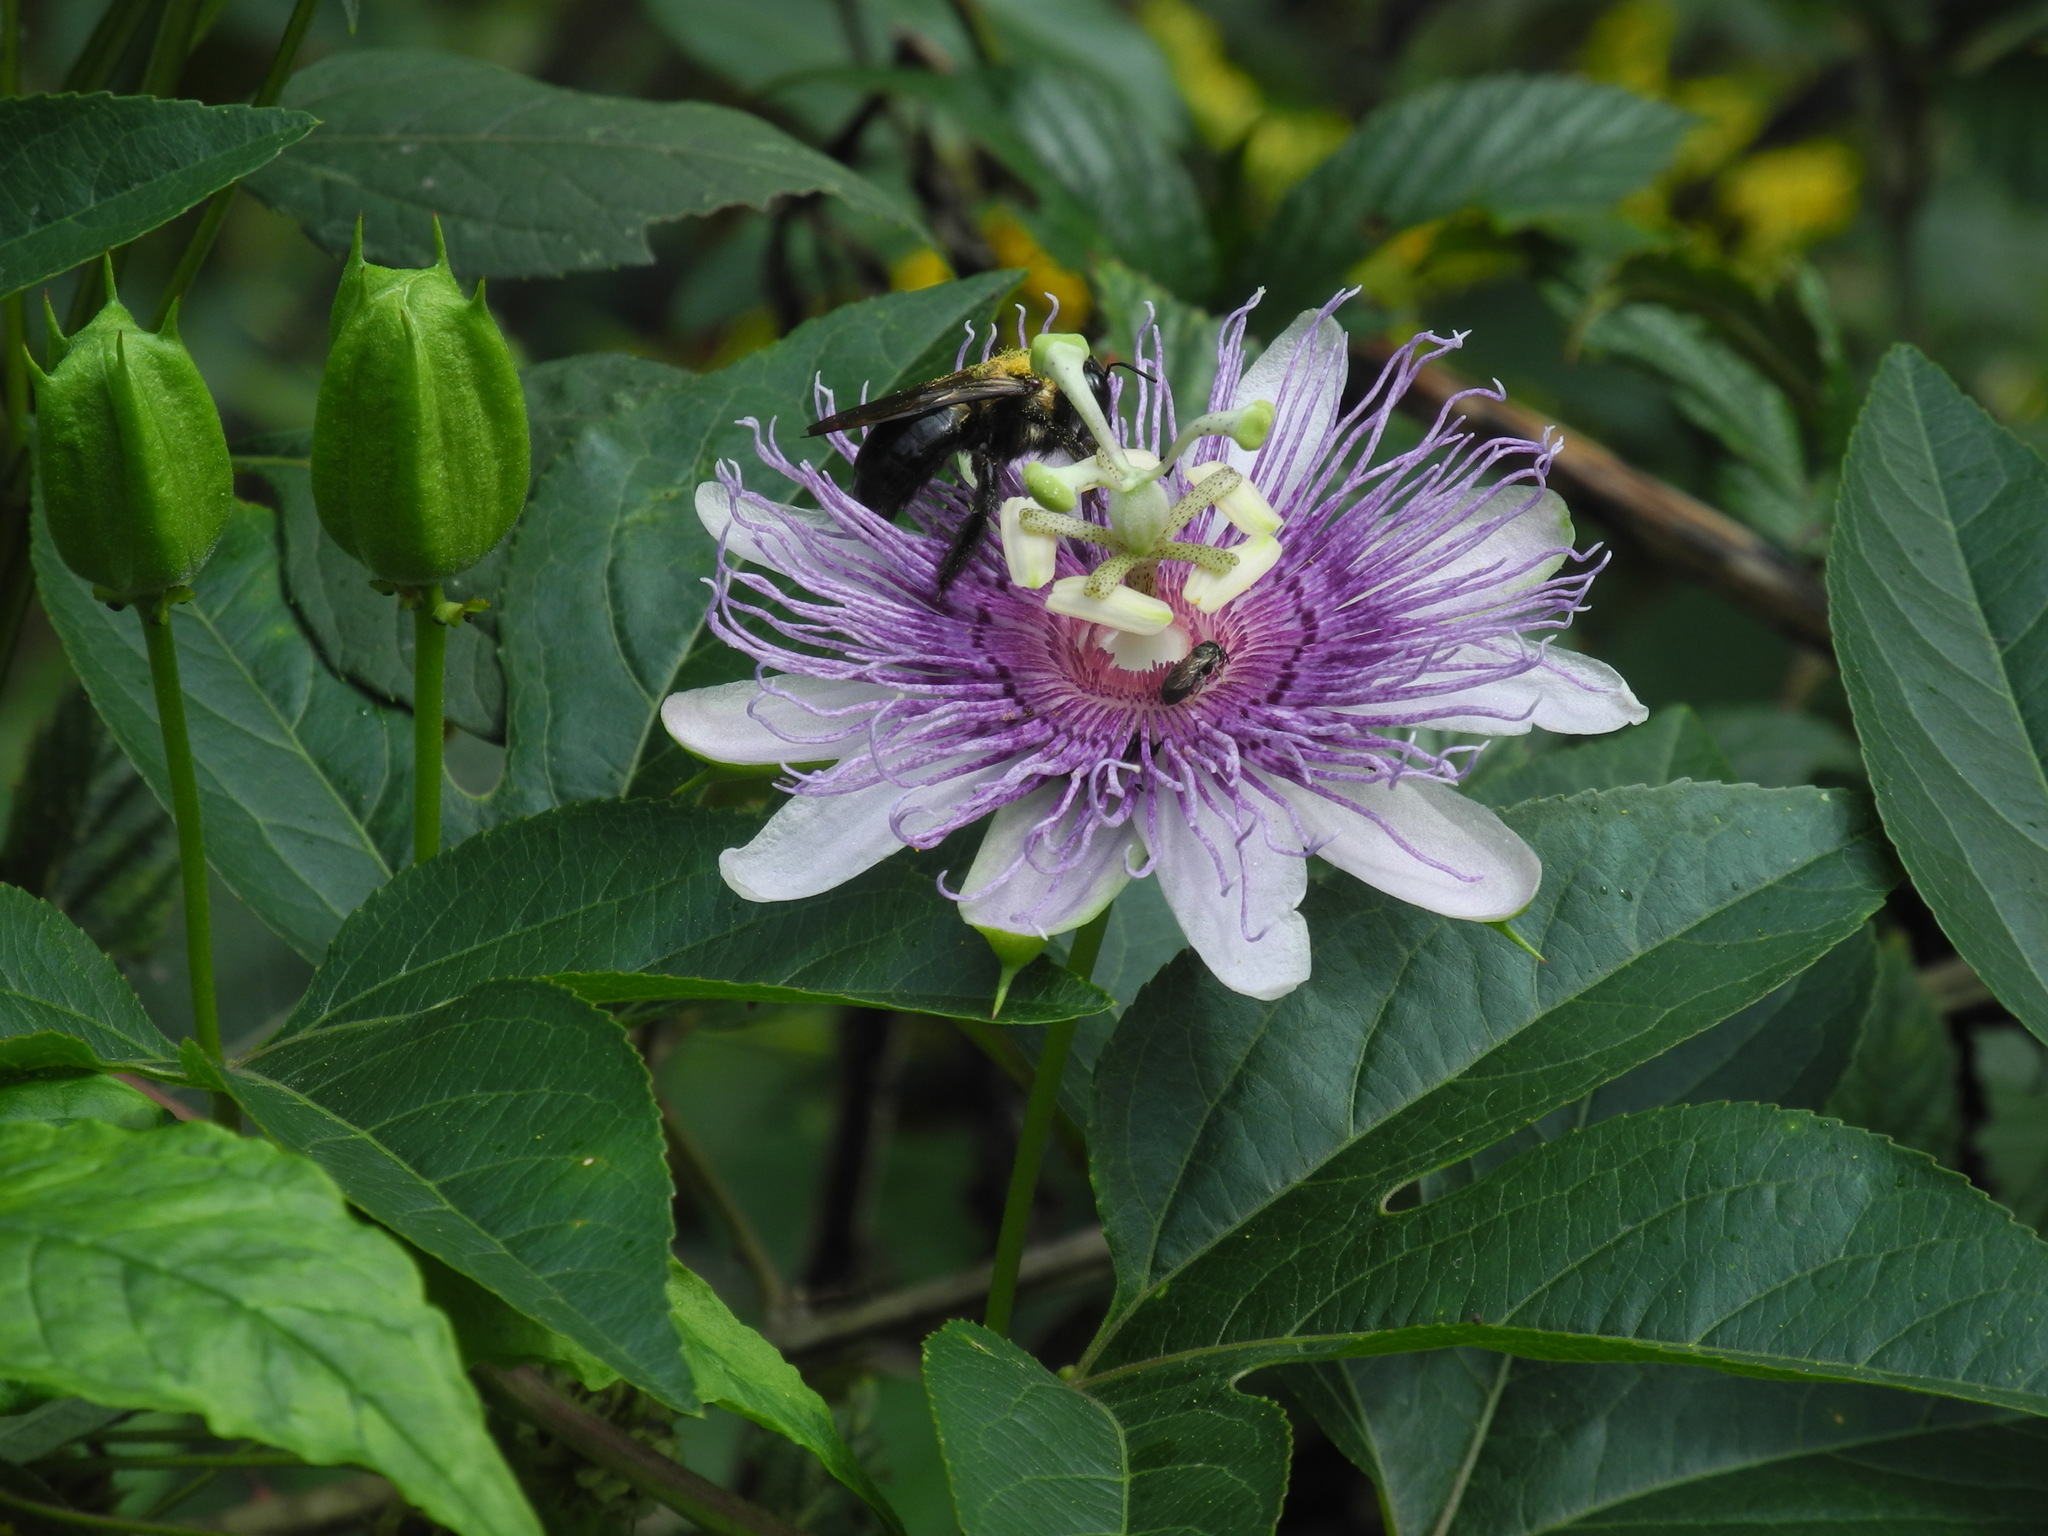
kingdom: Plantae
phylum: Tracheophyta
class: Magnoliopsida
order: Malpighiales
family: Passifloraceae
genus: Passiflora
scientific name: Passiflora incarnata
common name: Apricot-vine
